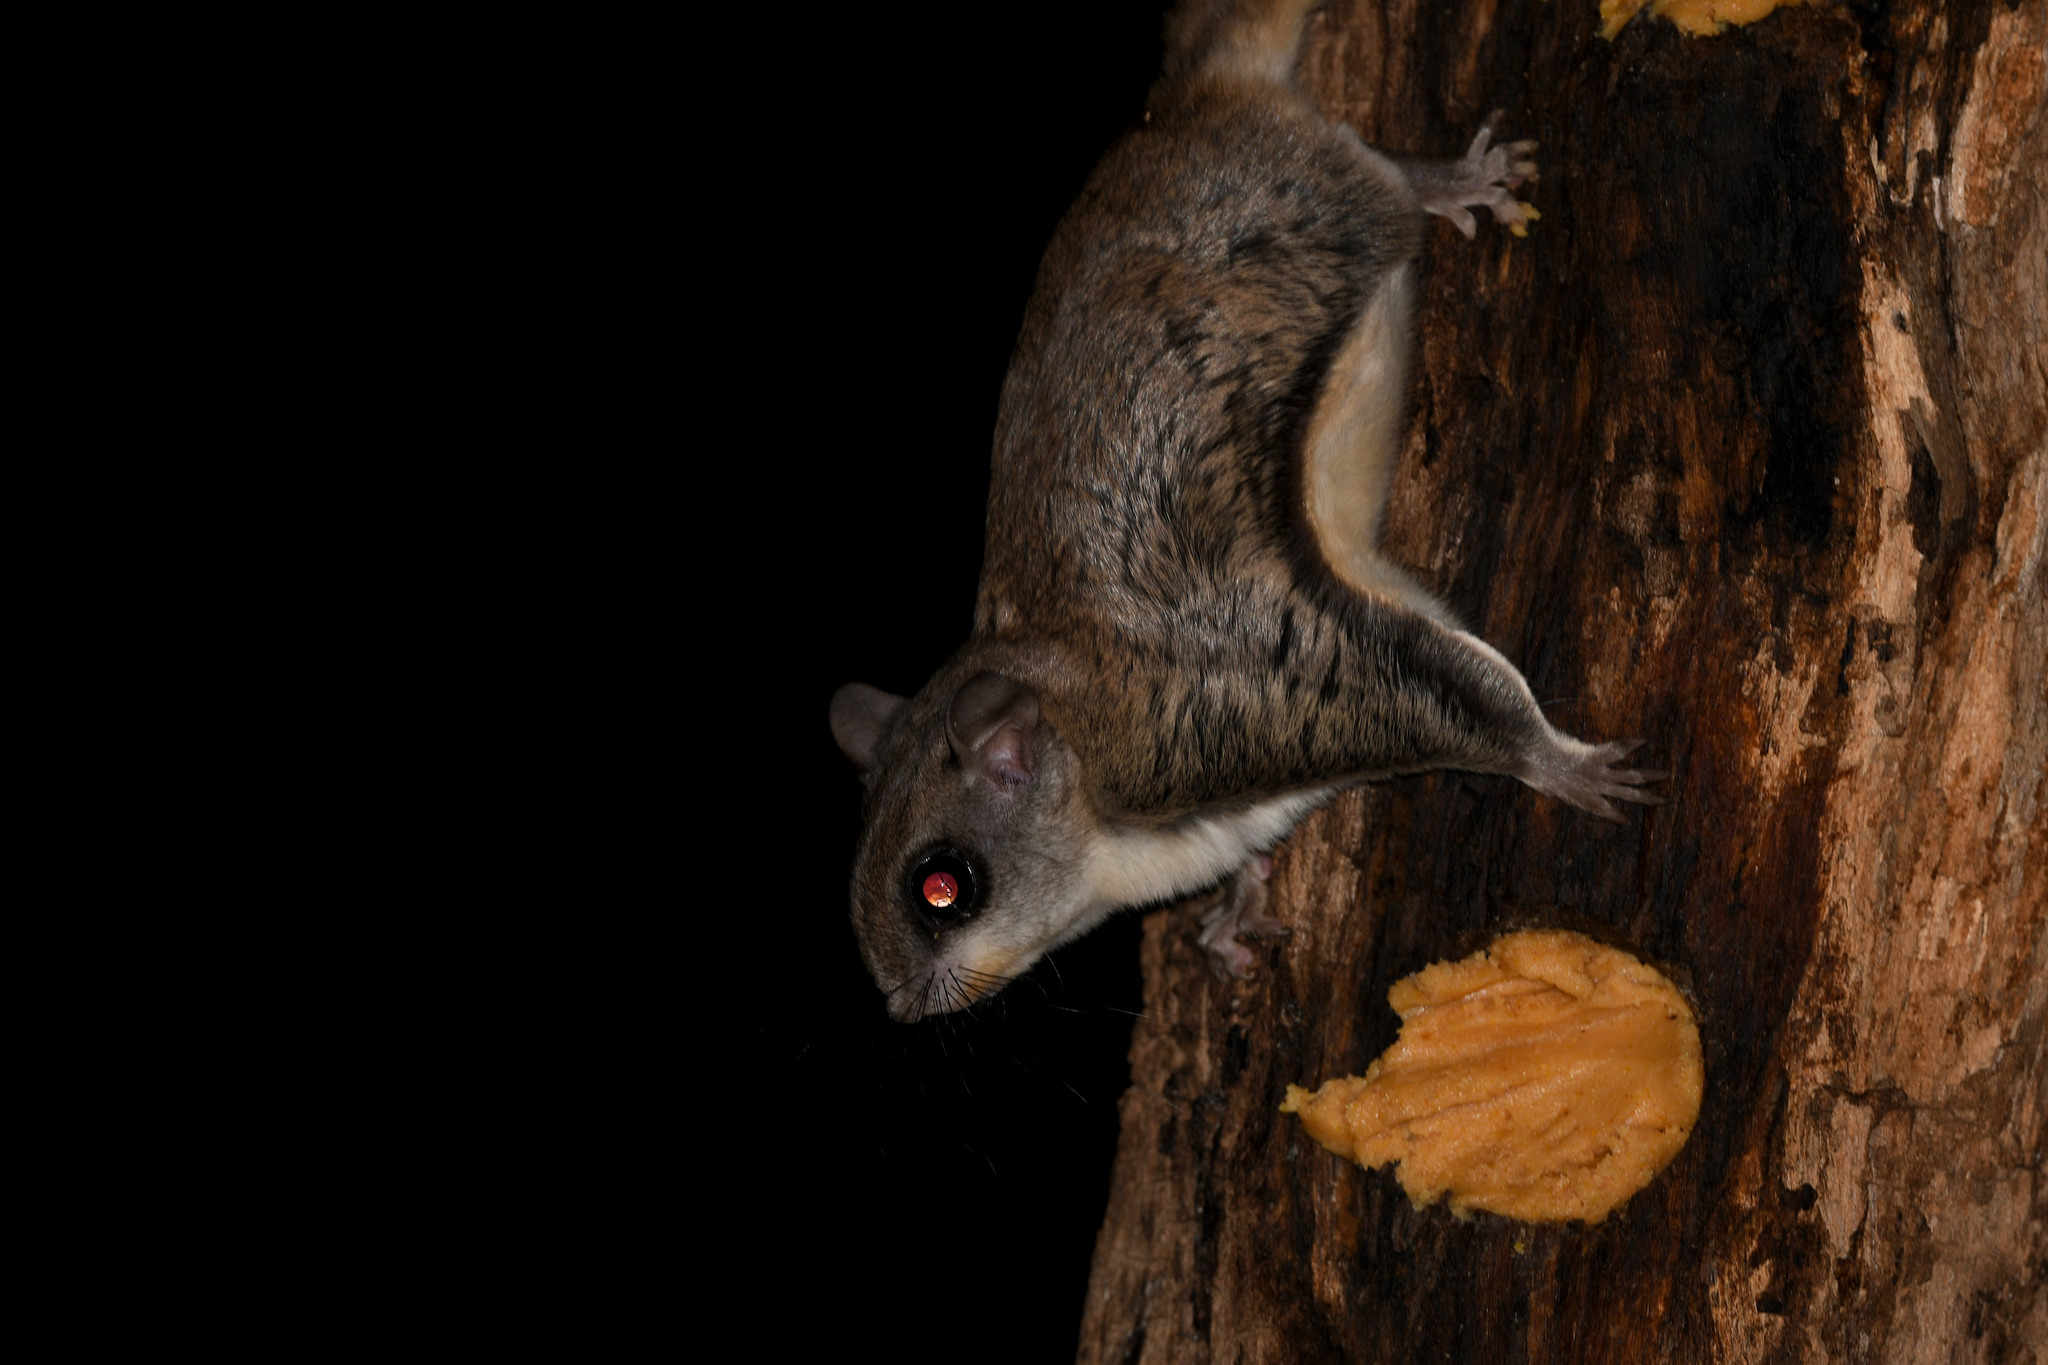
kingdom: Animalia
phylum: Chordata
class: Mammalia
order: Rodentia
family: Sciuridae
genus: Glaucomys
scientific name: Glaucomys volans
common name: Southern flying squirrel
